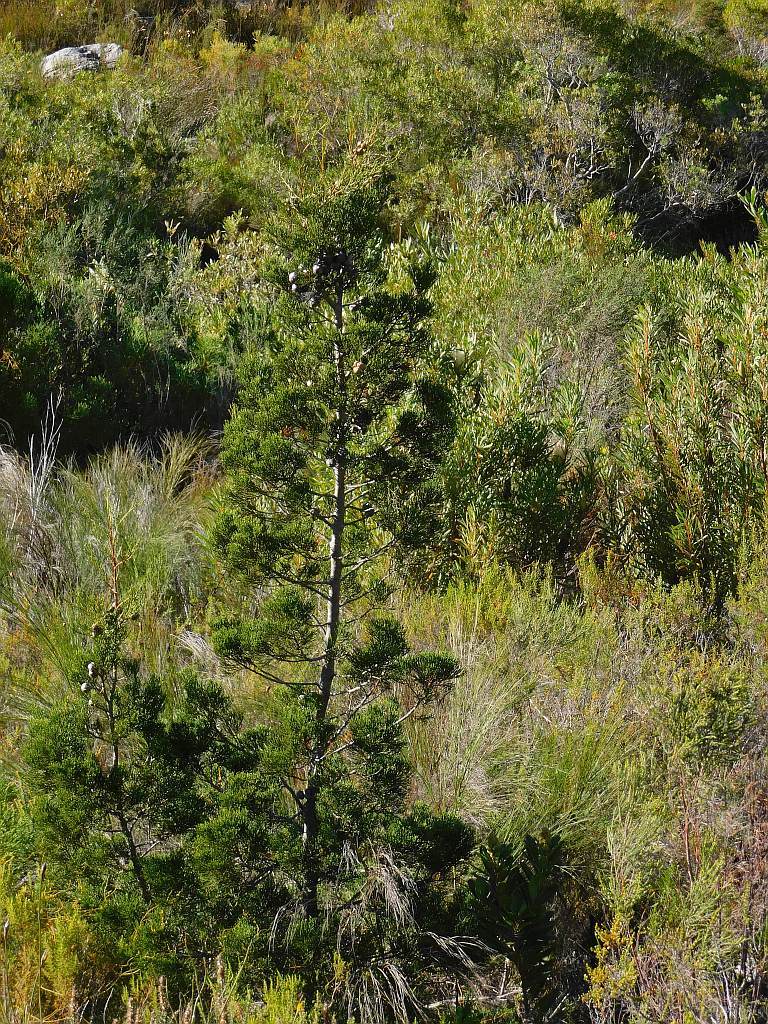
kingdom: Plantae
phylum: Tracheophyta
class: Pinopsida
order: Pinales
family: Cupressaceae
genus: Widdringtonia
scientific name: Widdringtonia nodiflora
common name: Cape cypress
